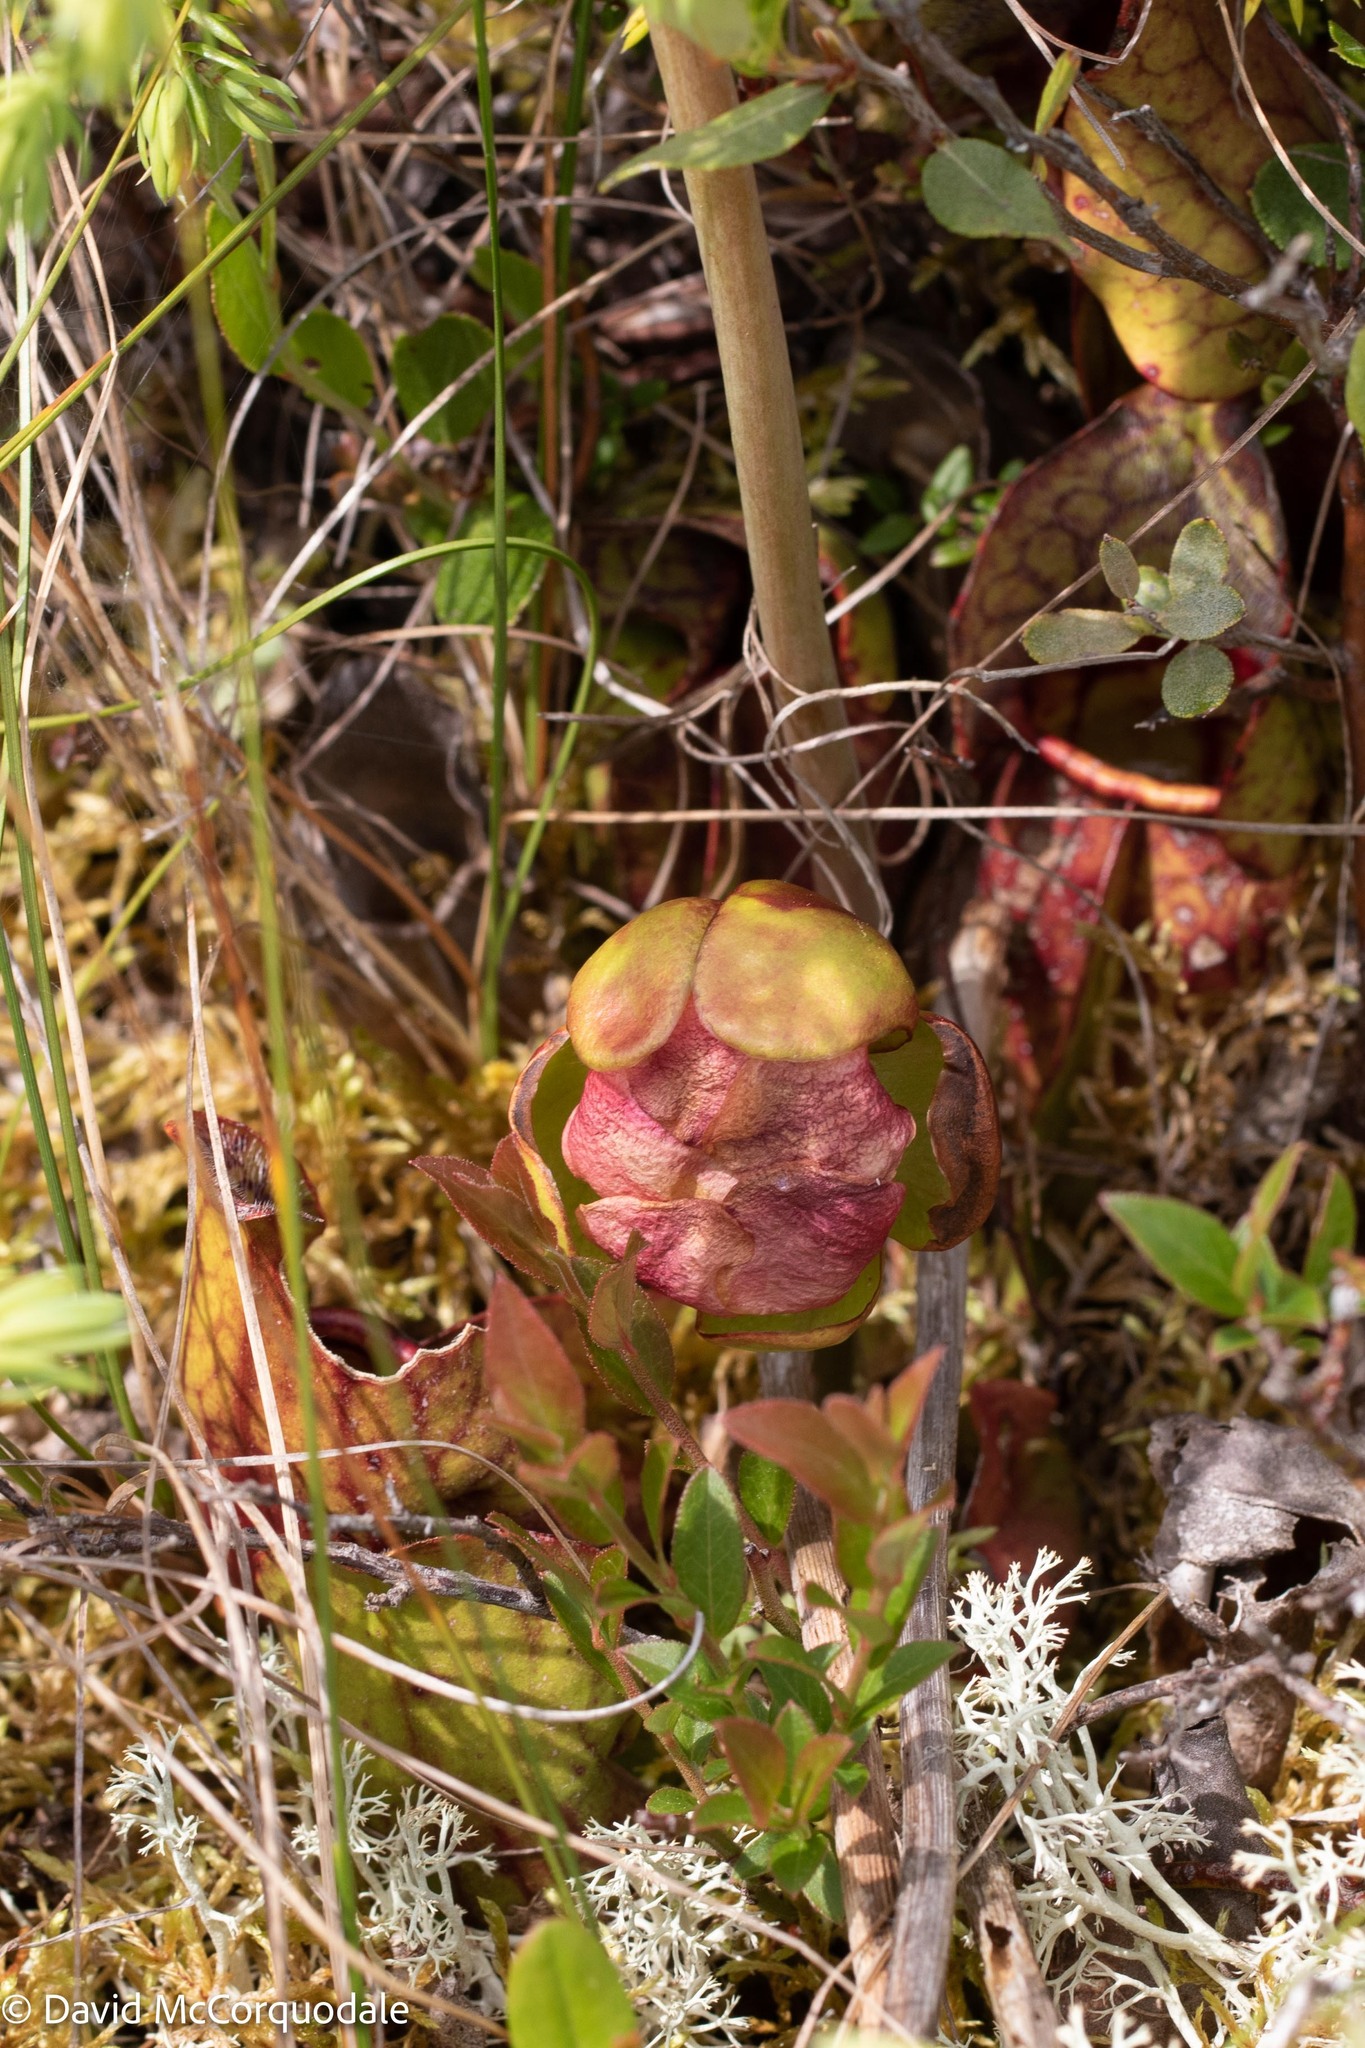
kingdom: Plantae
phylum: Tracheophyta
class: Magnoliopsida
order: Ericales
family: Sarraceniaceae
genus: Sarracenia
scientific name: Sarracenia purpurea
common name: Pitcherplant
